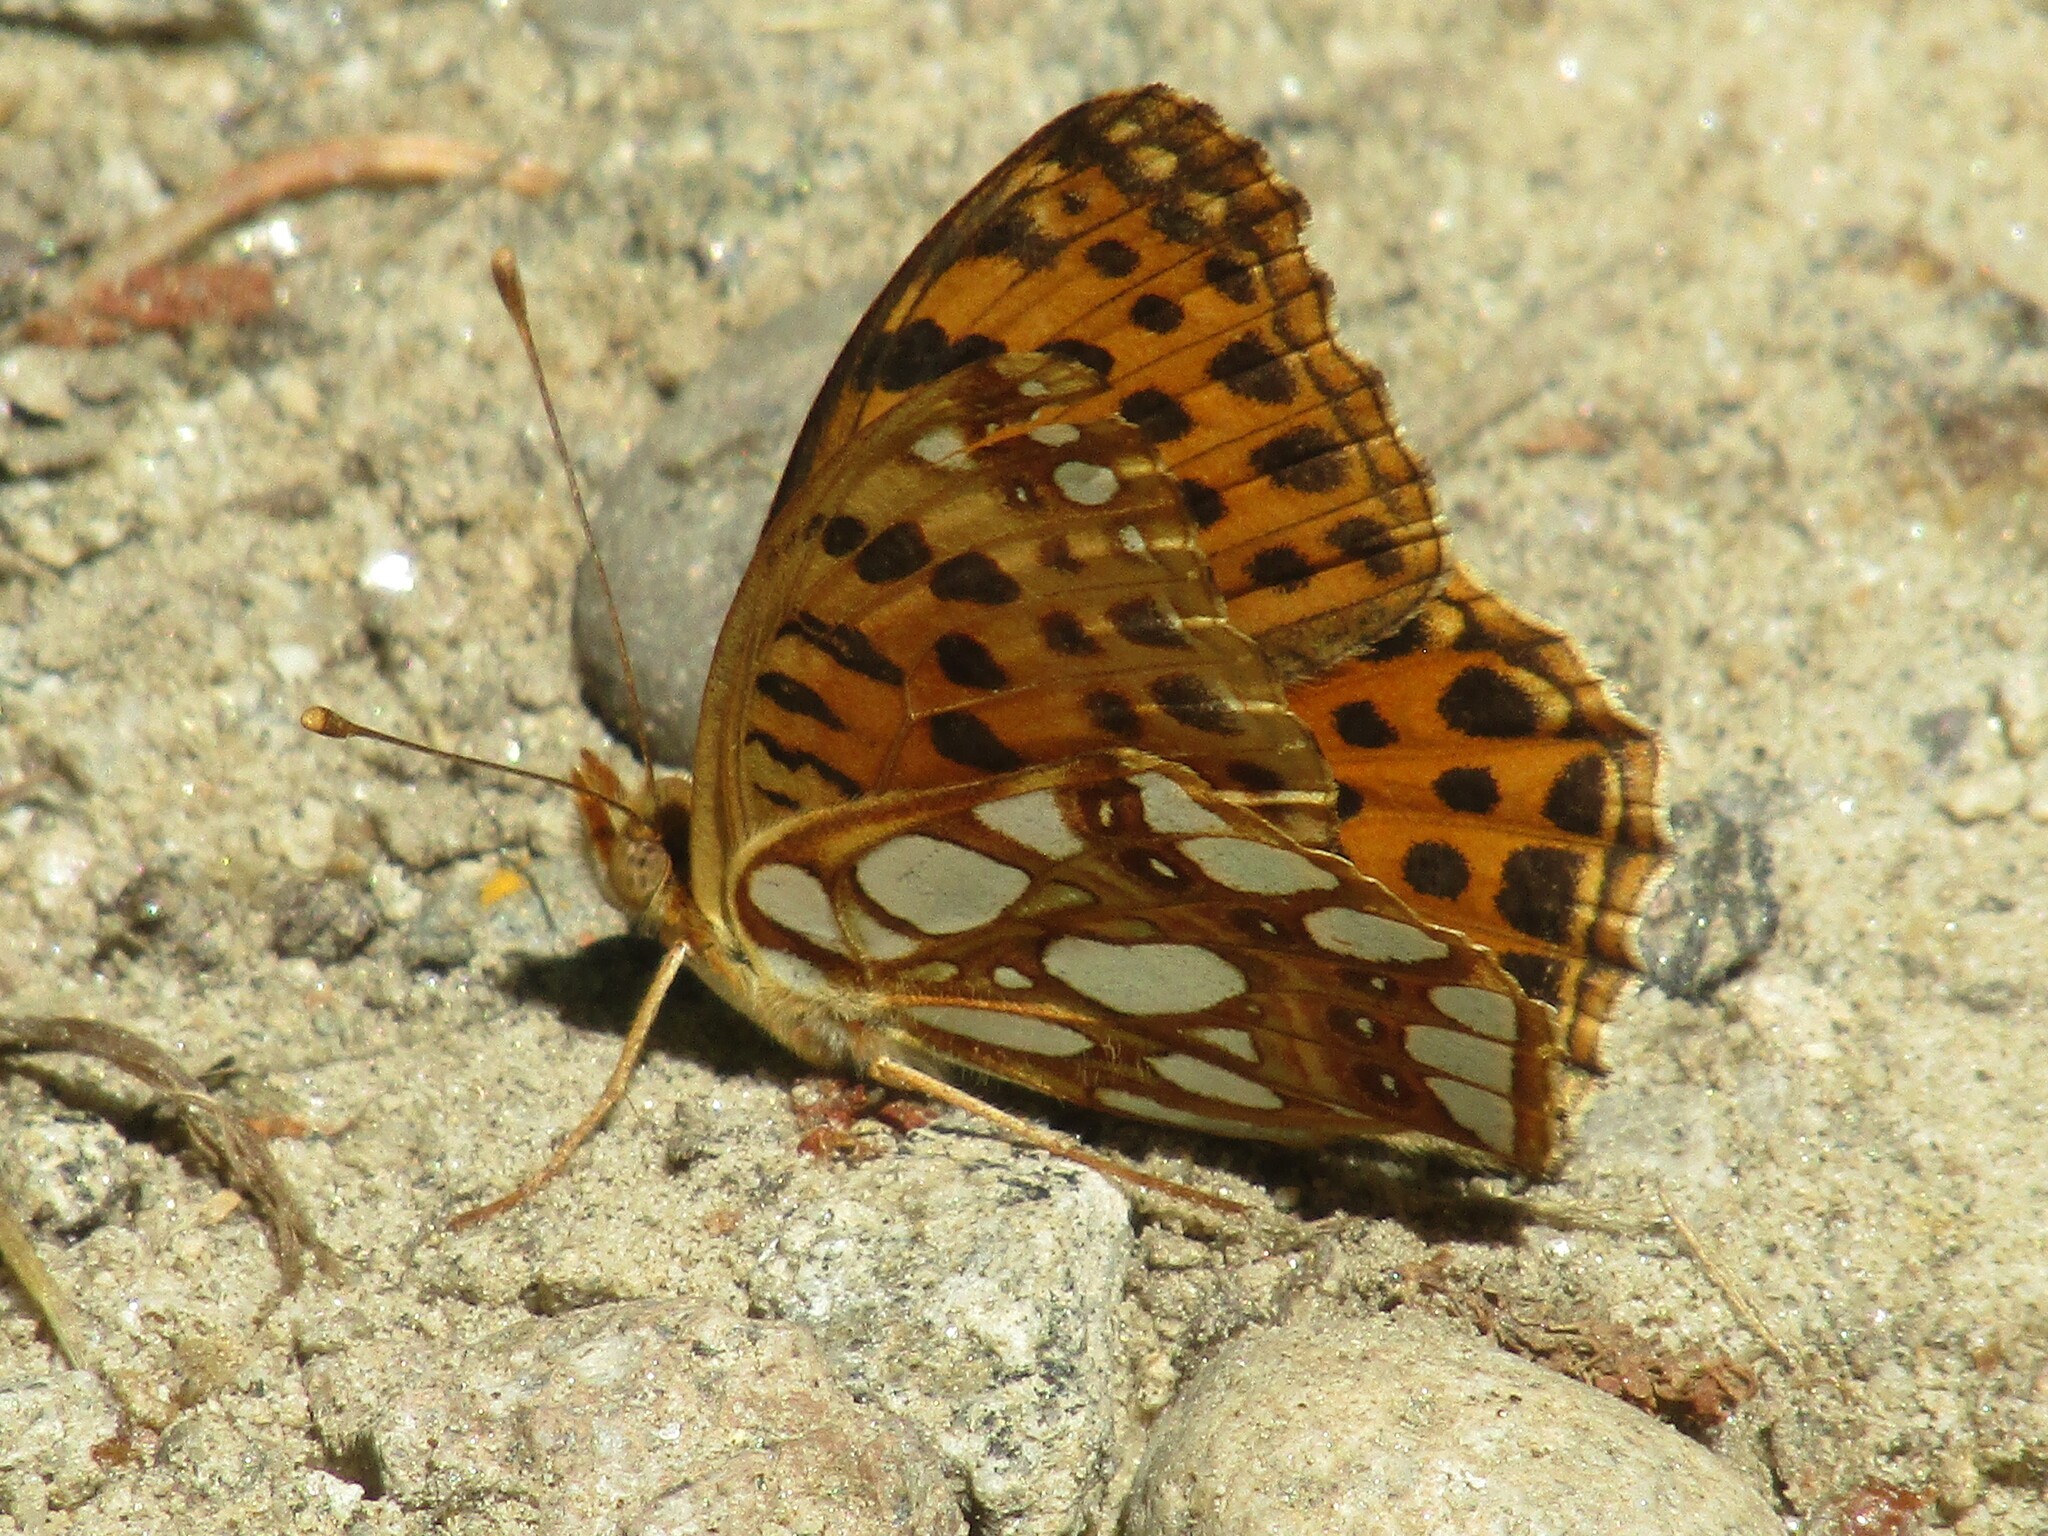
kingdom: Animalia
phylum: Arthropoda
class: Insecta
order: Lepidoptera
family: Nymphalidae
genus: Issoria
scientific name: Issoria lathonia
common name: Queen of spain fritillary
